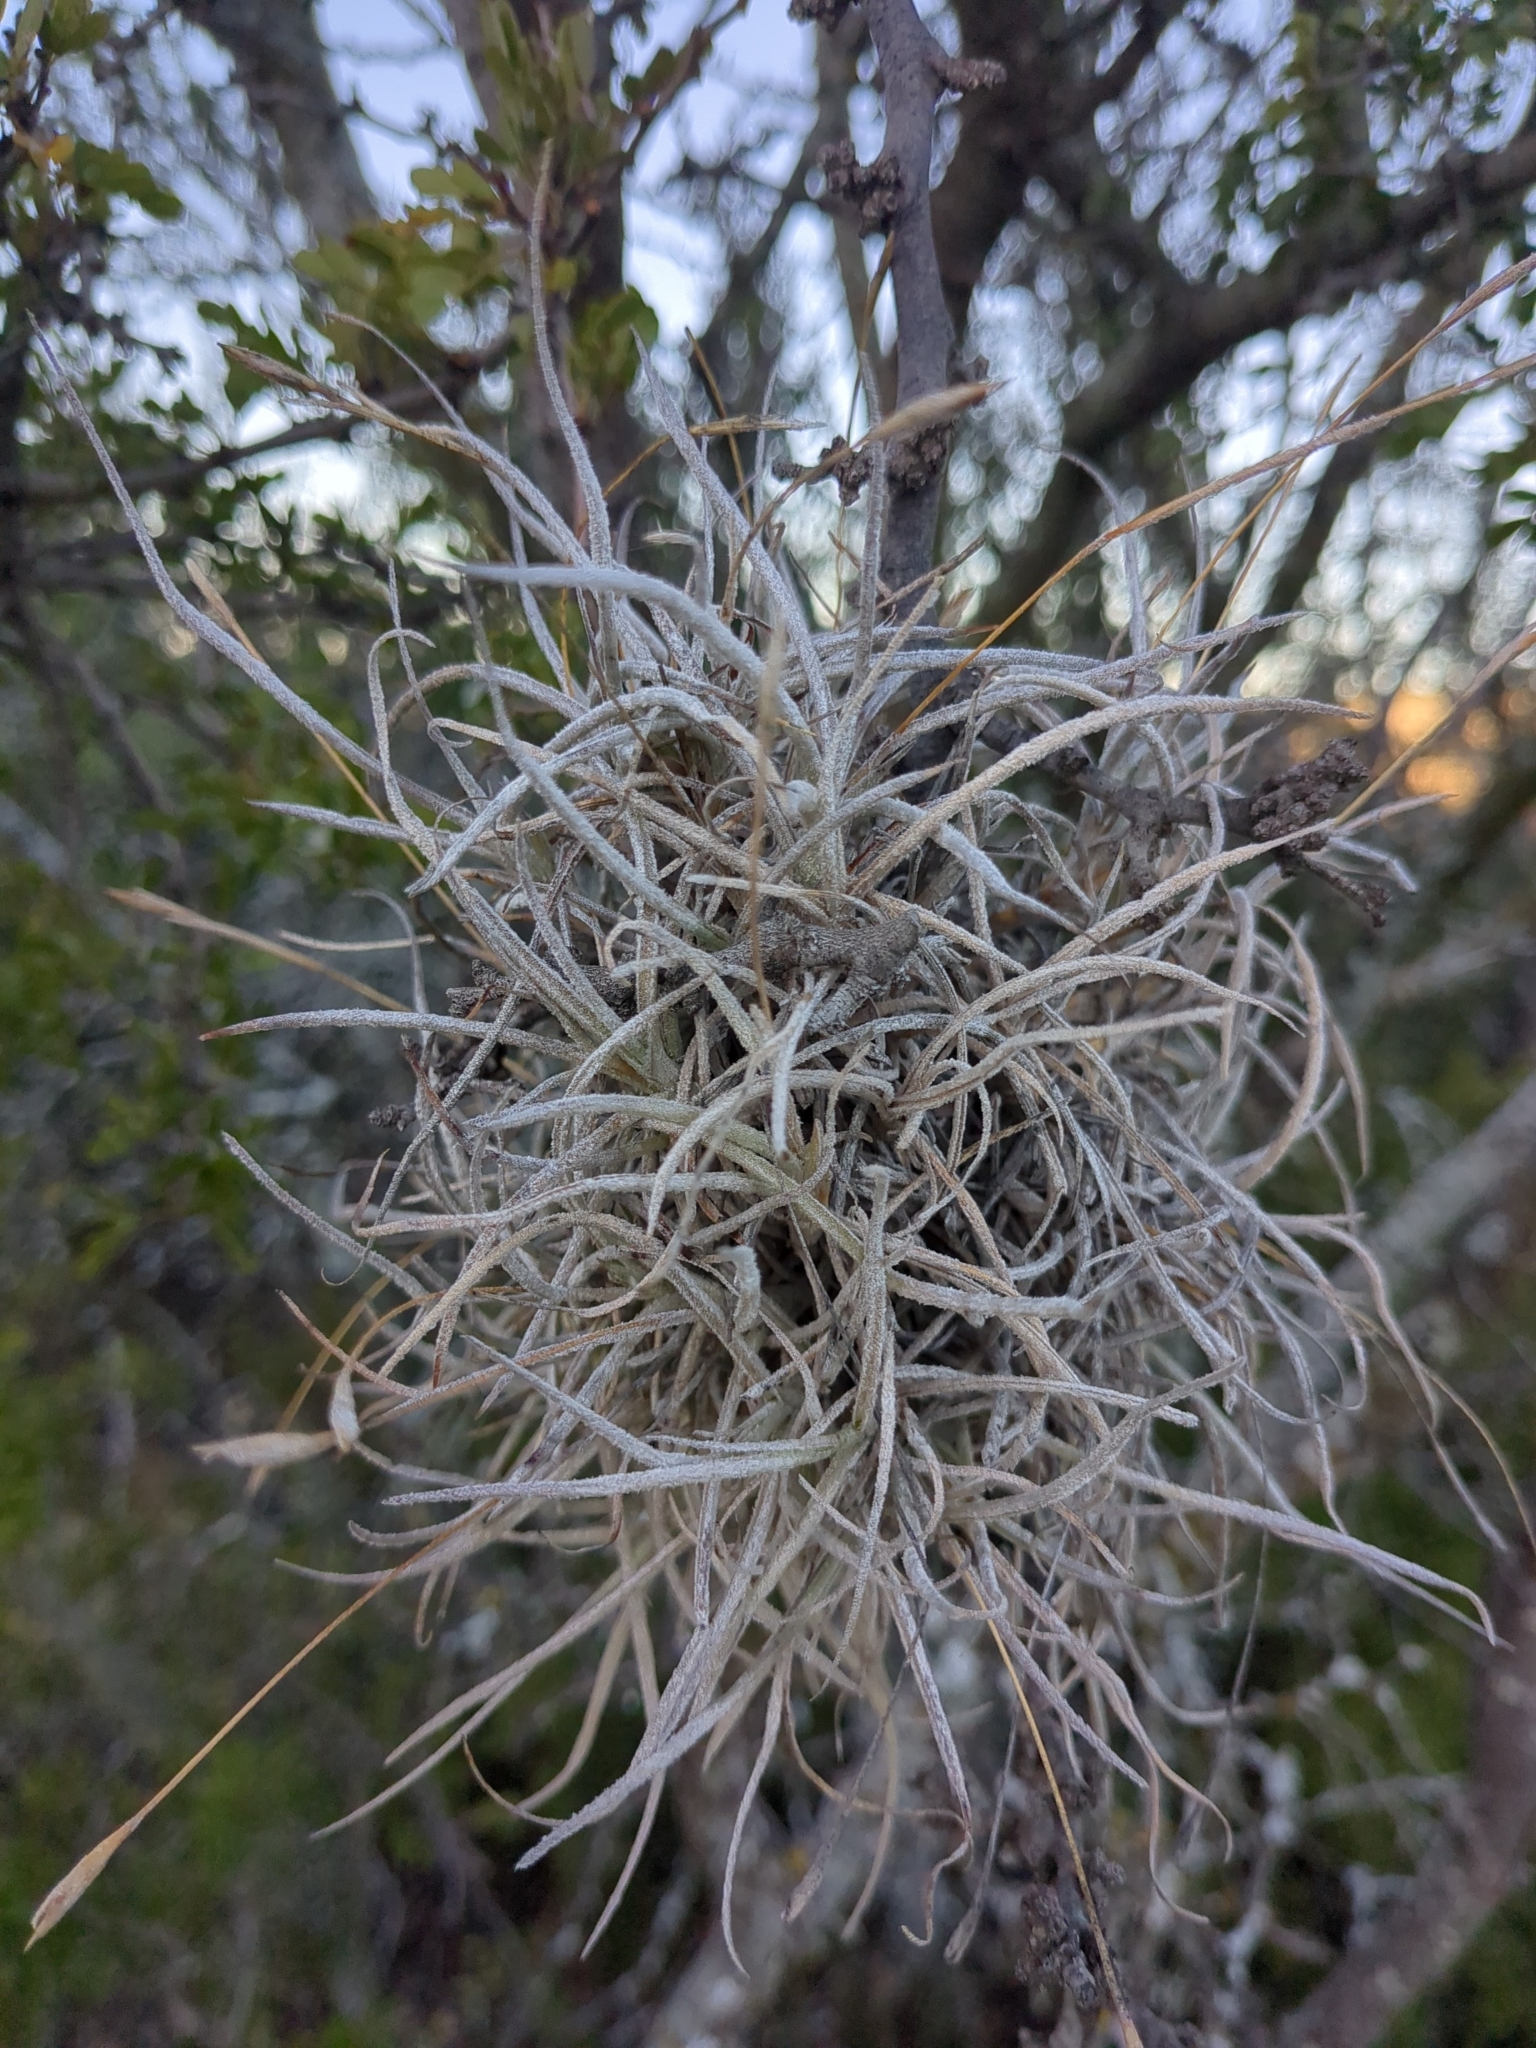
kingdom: Plantae
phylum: Tracheophyta
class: Liliopsida
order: Poales
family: Bromeliaceae
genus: Tillandsia
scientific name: Tillandsia recurvata
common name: Small ballmoss
